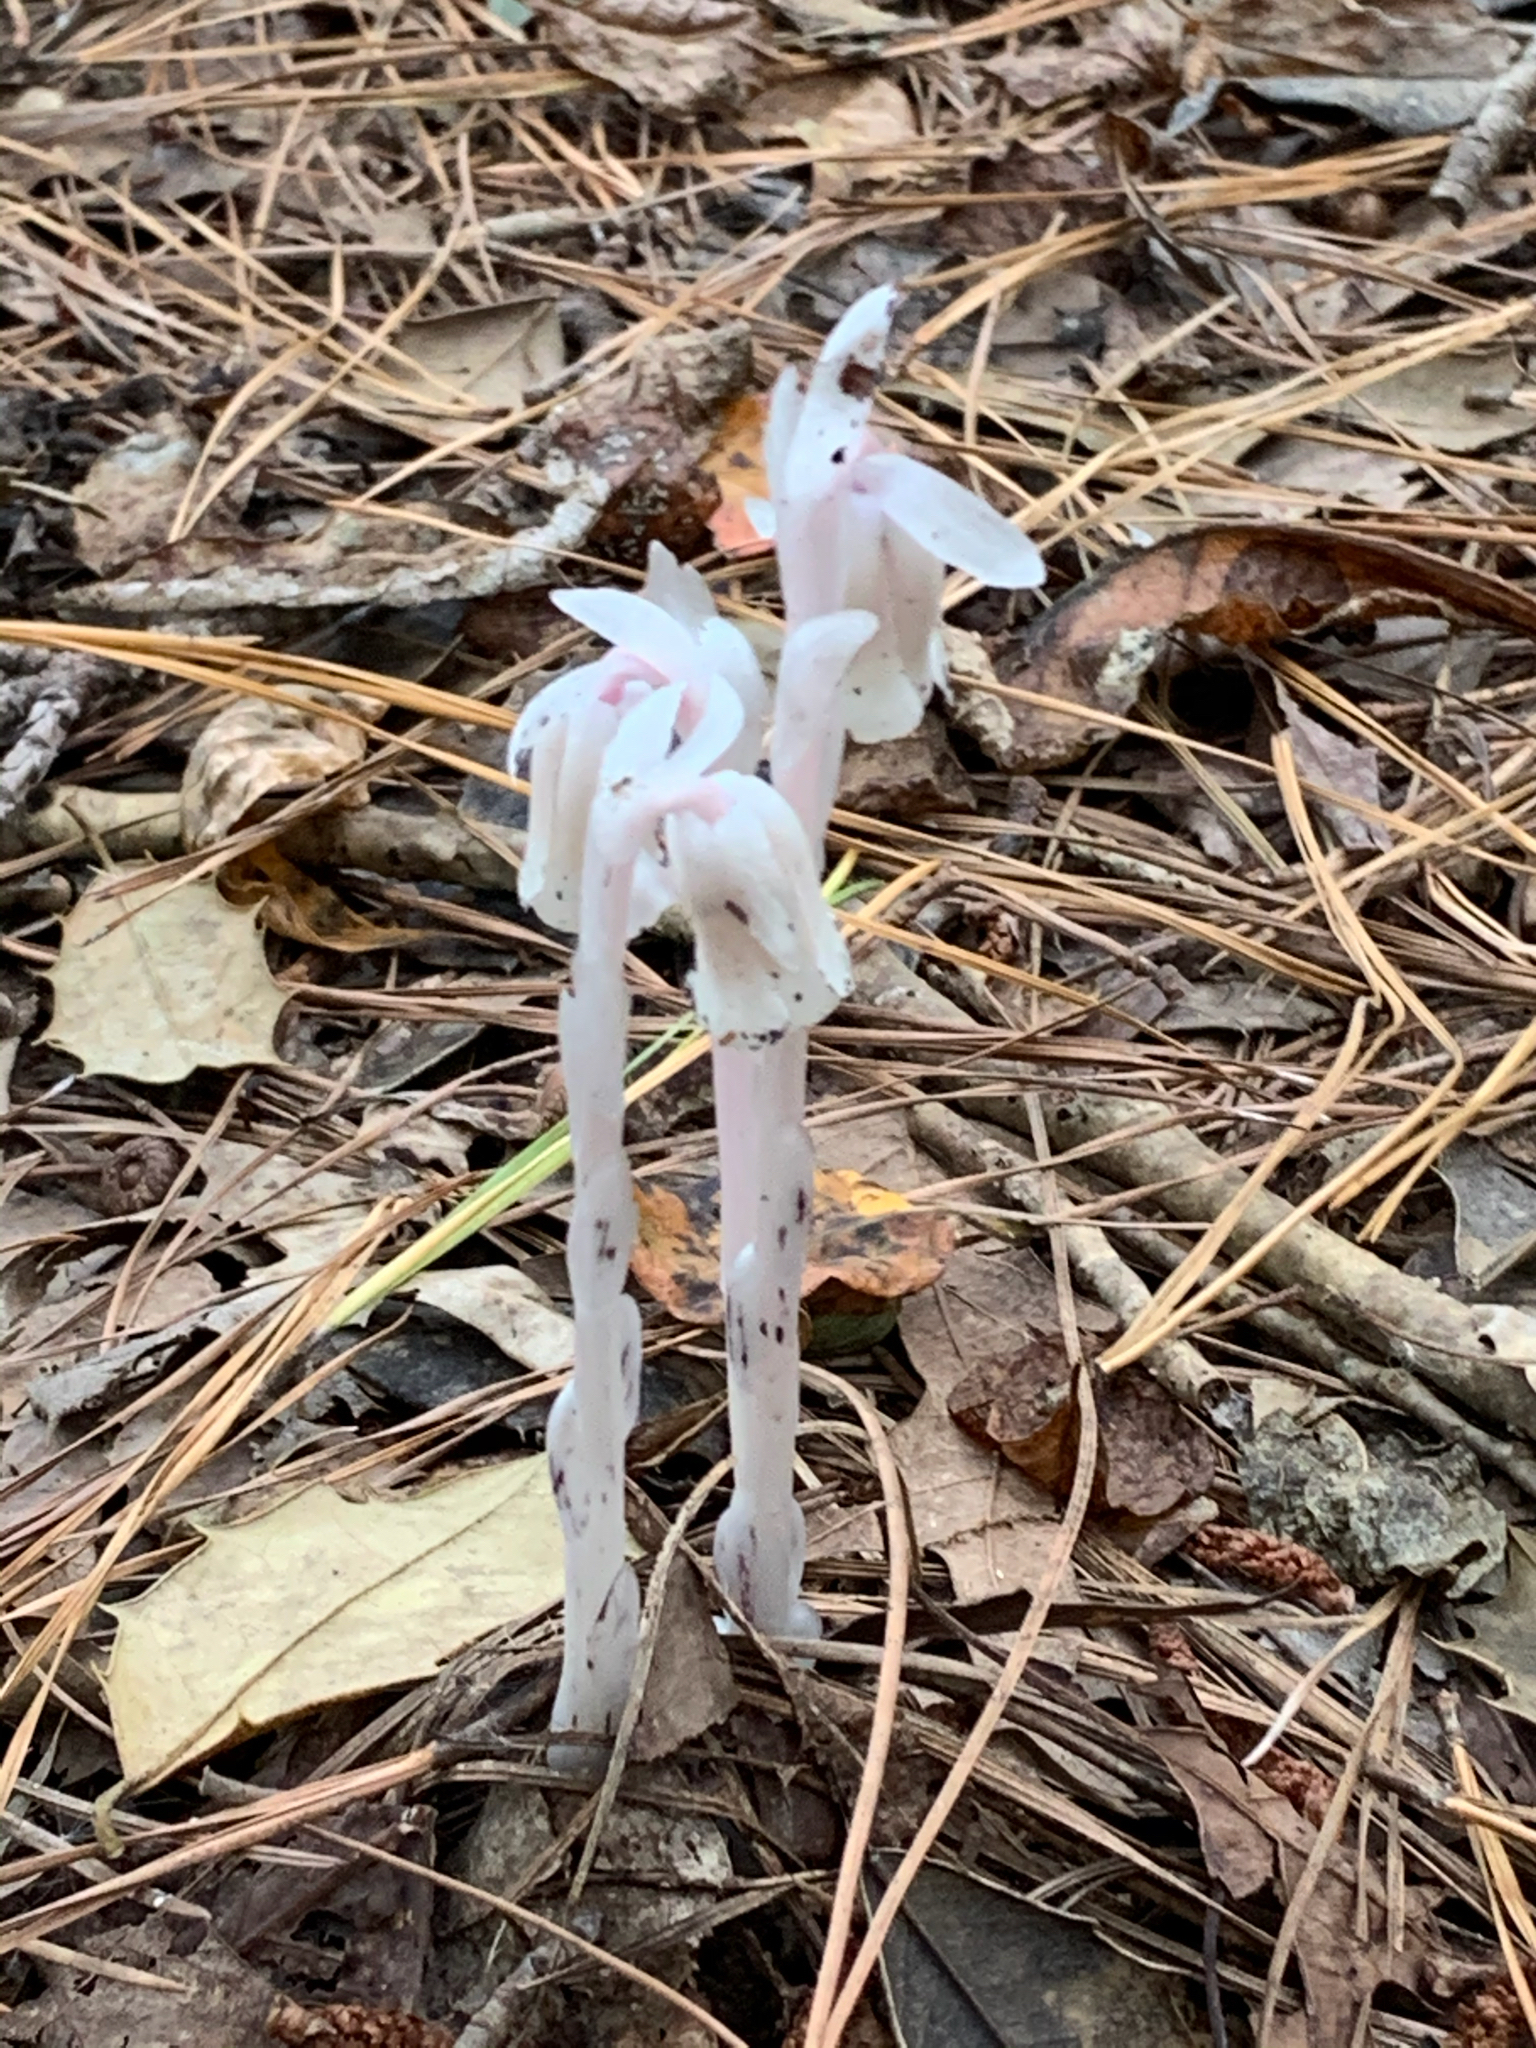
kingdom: Plantae
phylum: Tracheophyta
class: Magnoliopsida
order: Ericales
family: Ericaceae
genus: Monotropa
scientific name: Monotropa uniflora
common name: Convulsion root
